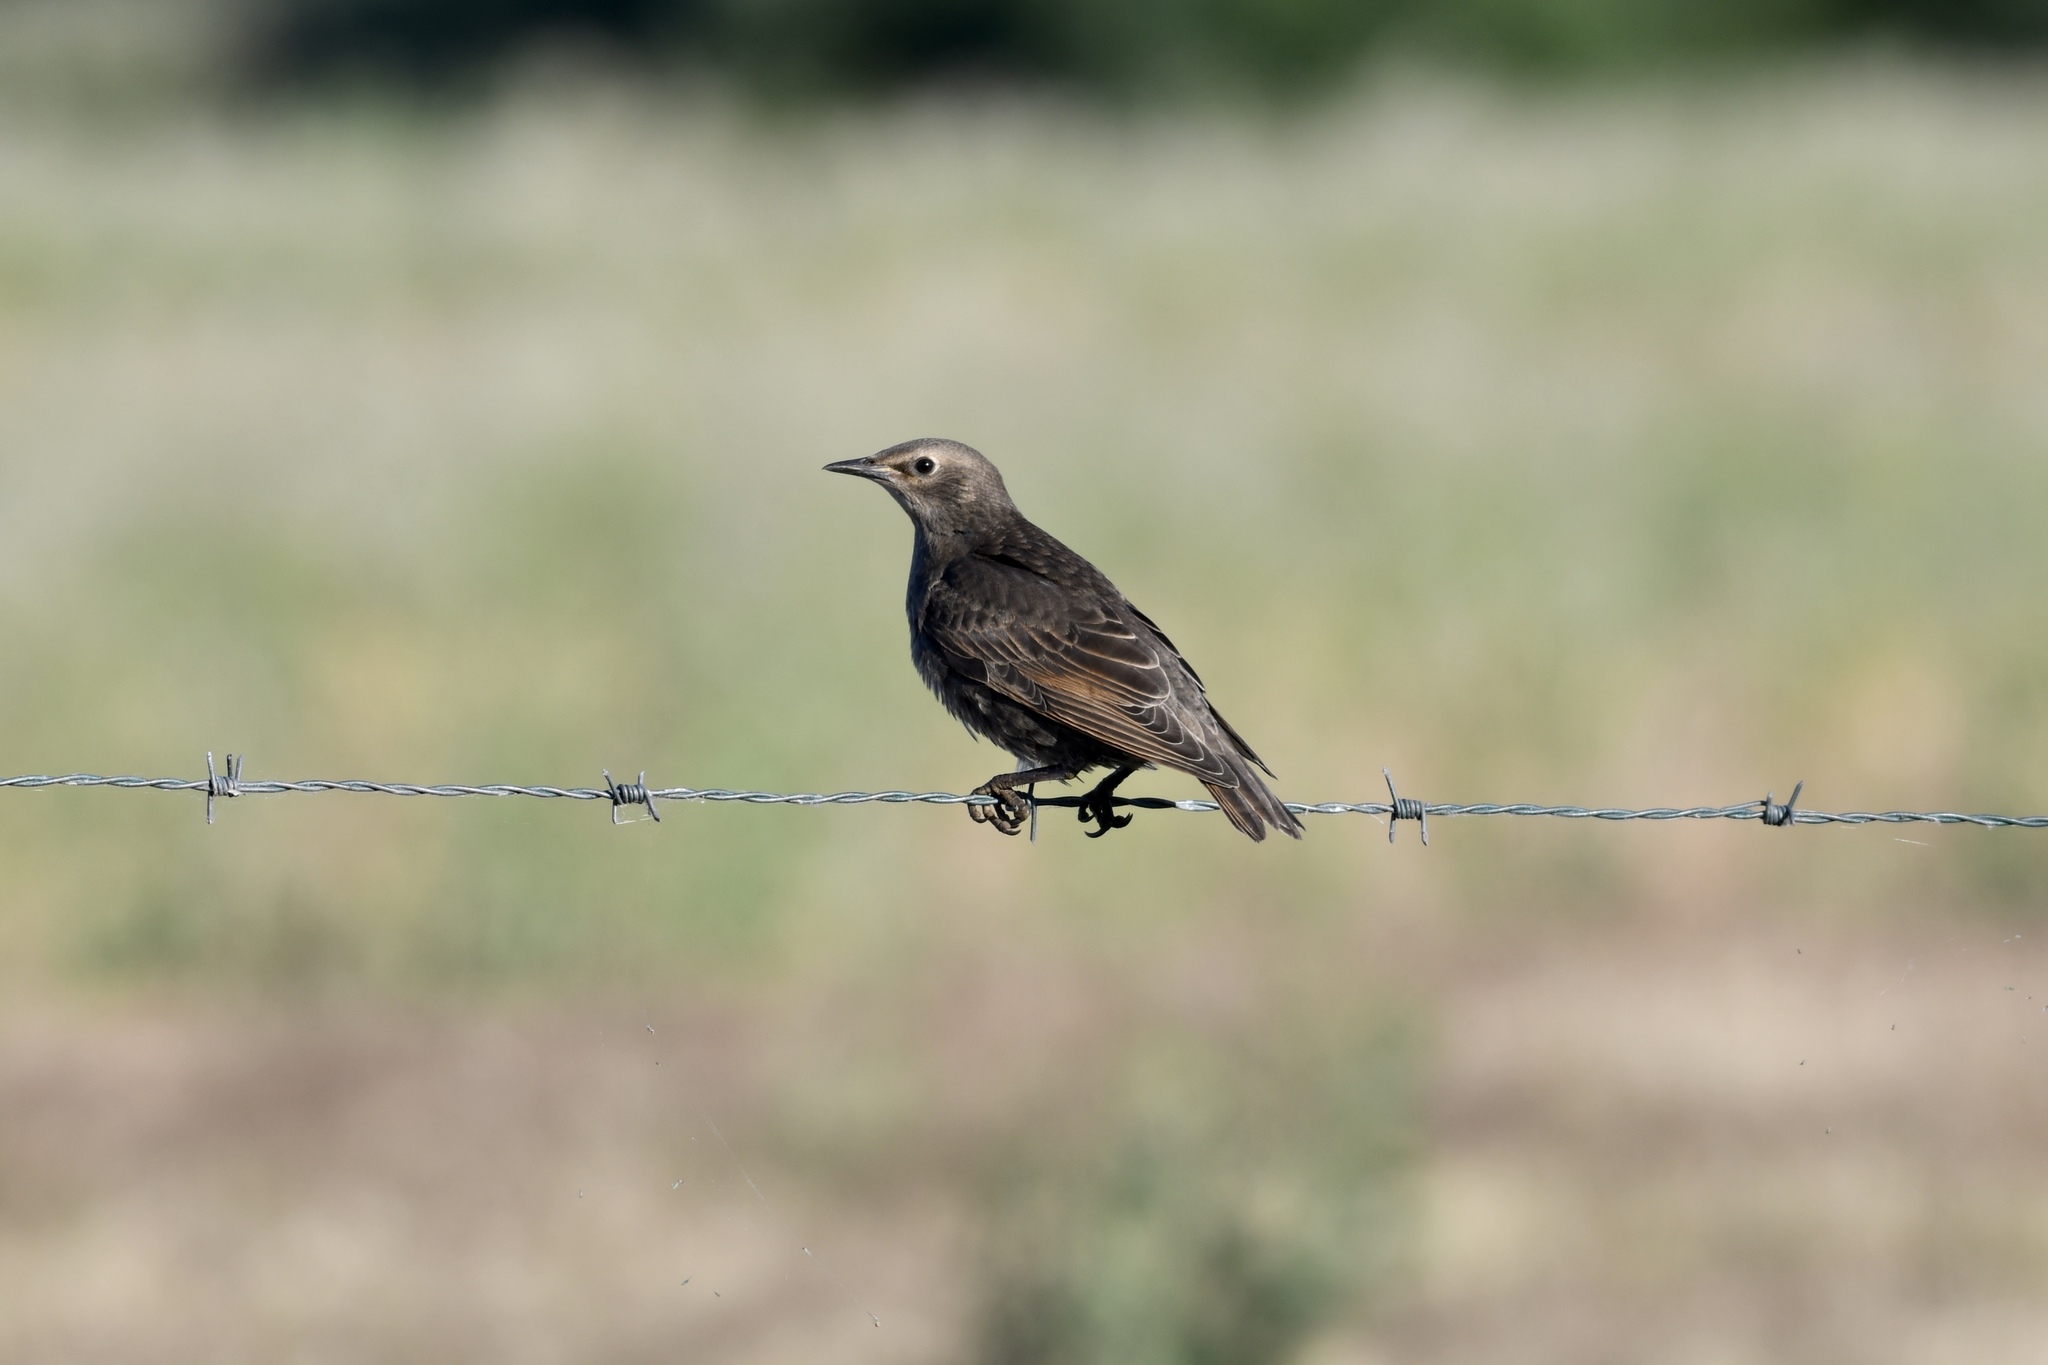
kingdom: Animalia
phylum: Chordata
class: Aves
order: Passeriformes
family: Sturnidae
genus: Sturnus
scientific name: Sturnus vulgaris
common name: Common starling
